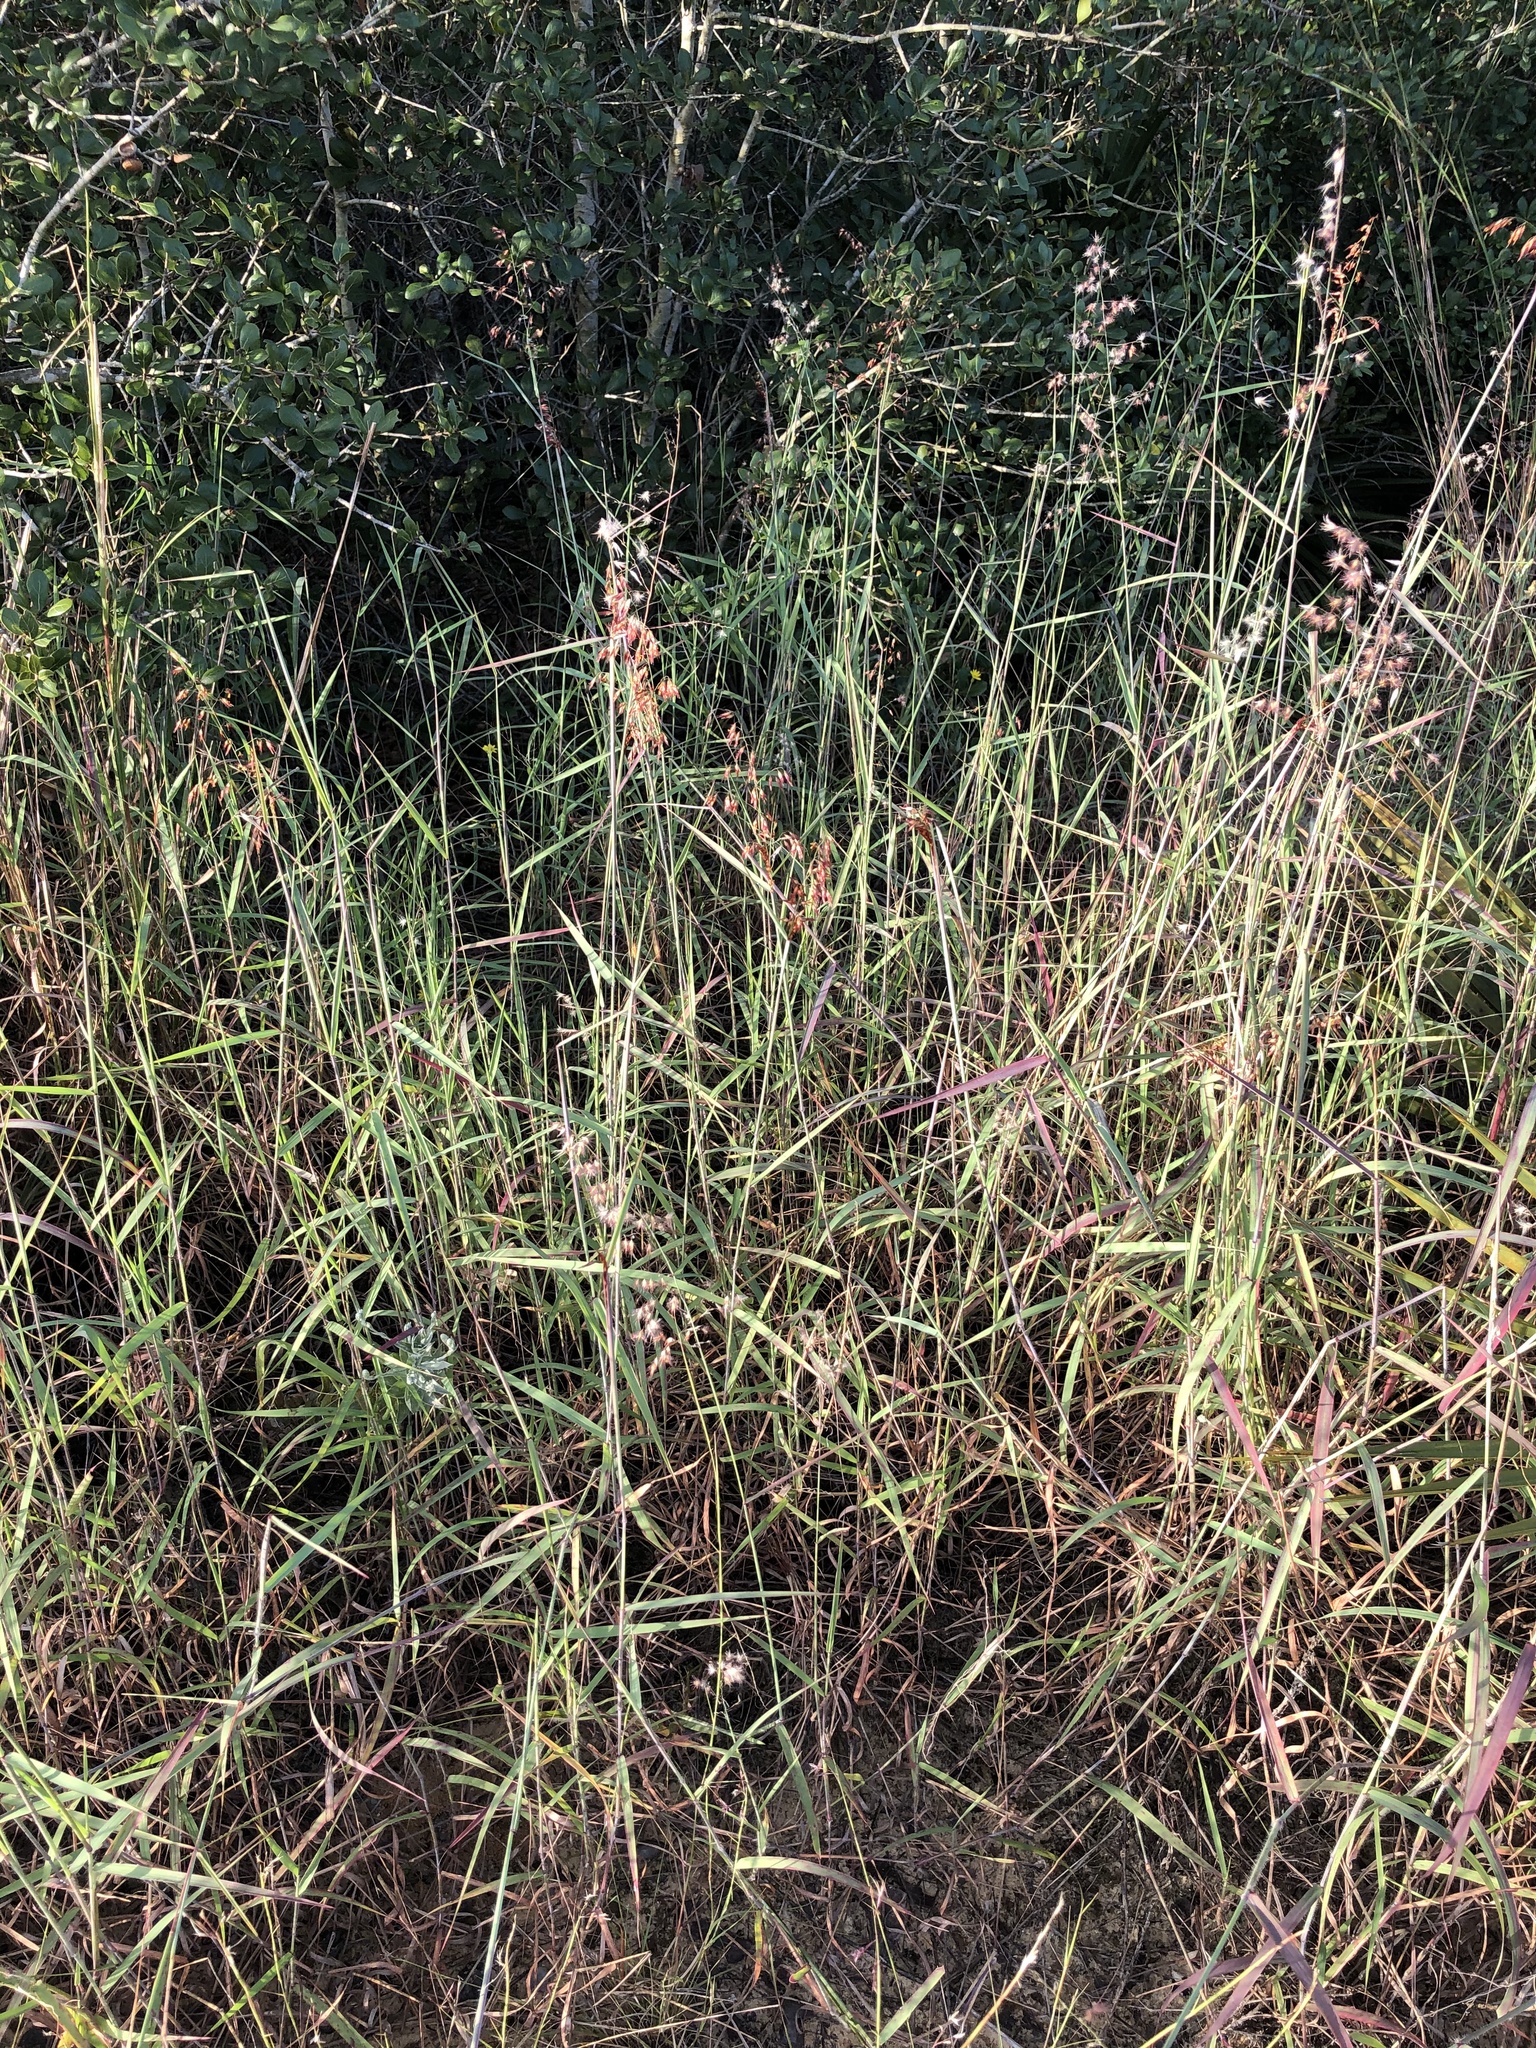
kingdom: Plantae
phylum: Tracheophyta
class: Liliopsida
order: Poales
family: Poaceae
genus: Melinis
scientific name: Melinis repens
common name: Rose natal grass
